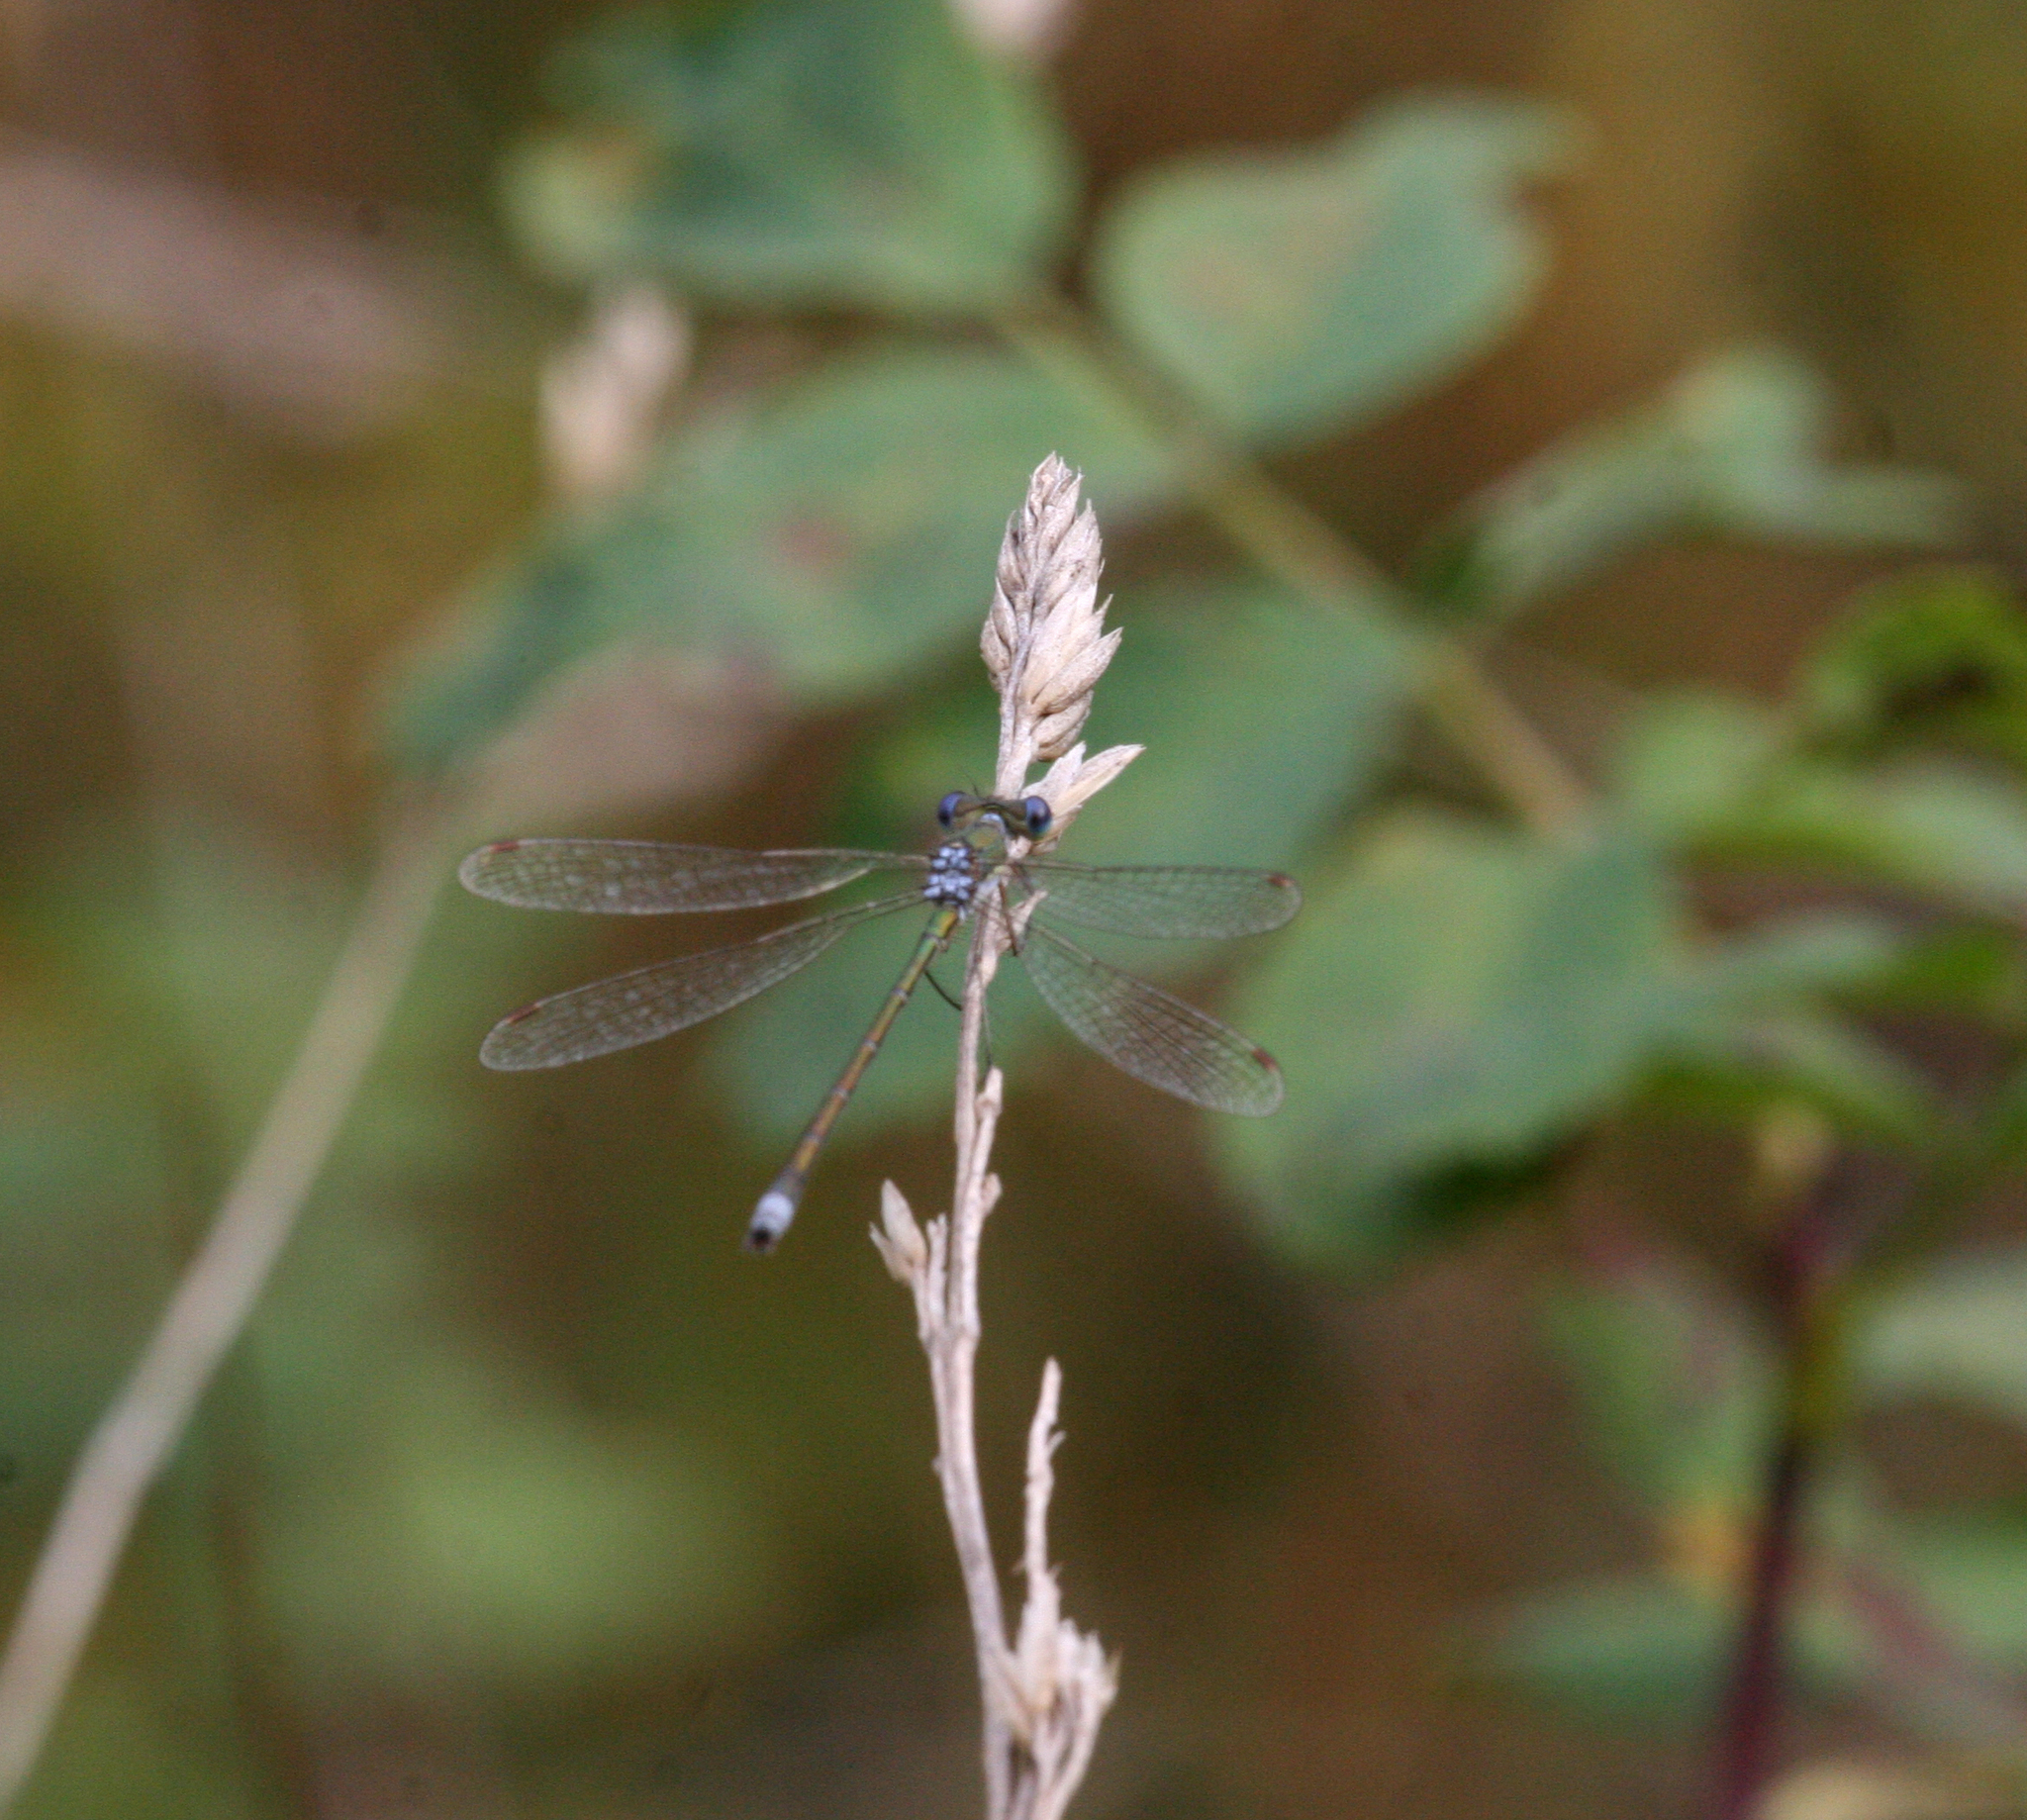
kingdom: Animalia
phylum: Arthropoda
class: Insecta
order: Odonata
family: Lestidae
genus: Lestes
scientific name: Lestes virens
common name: Small emerald spreadwing
